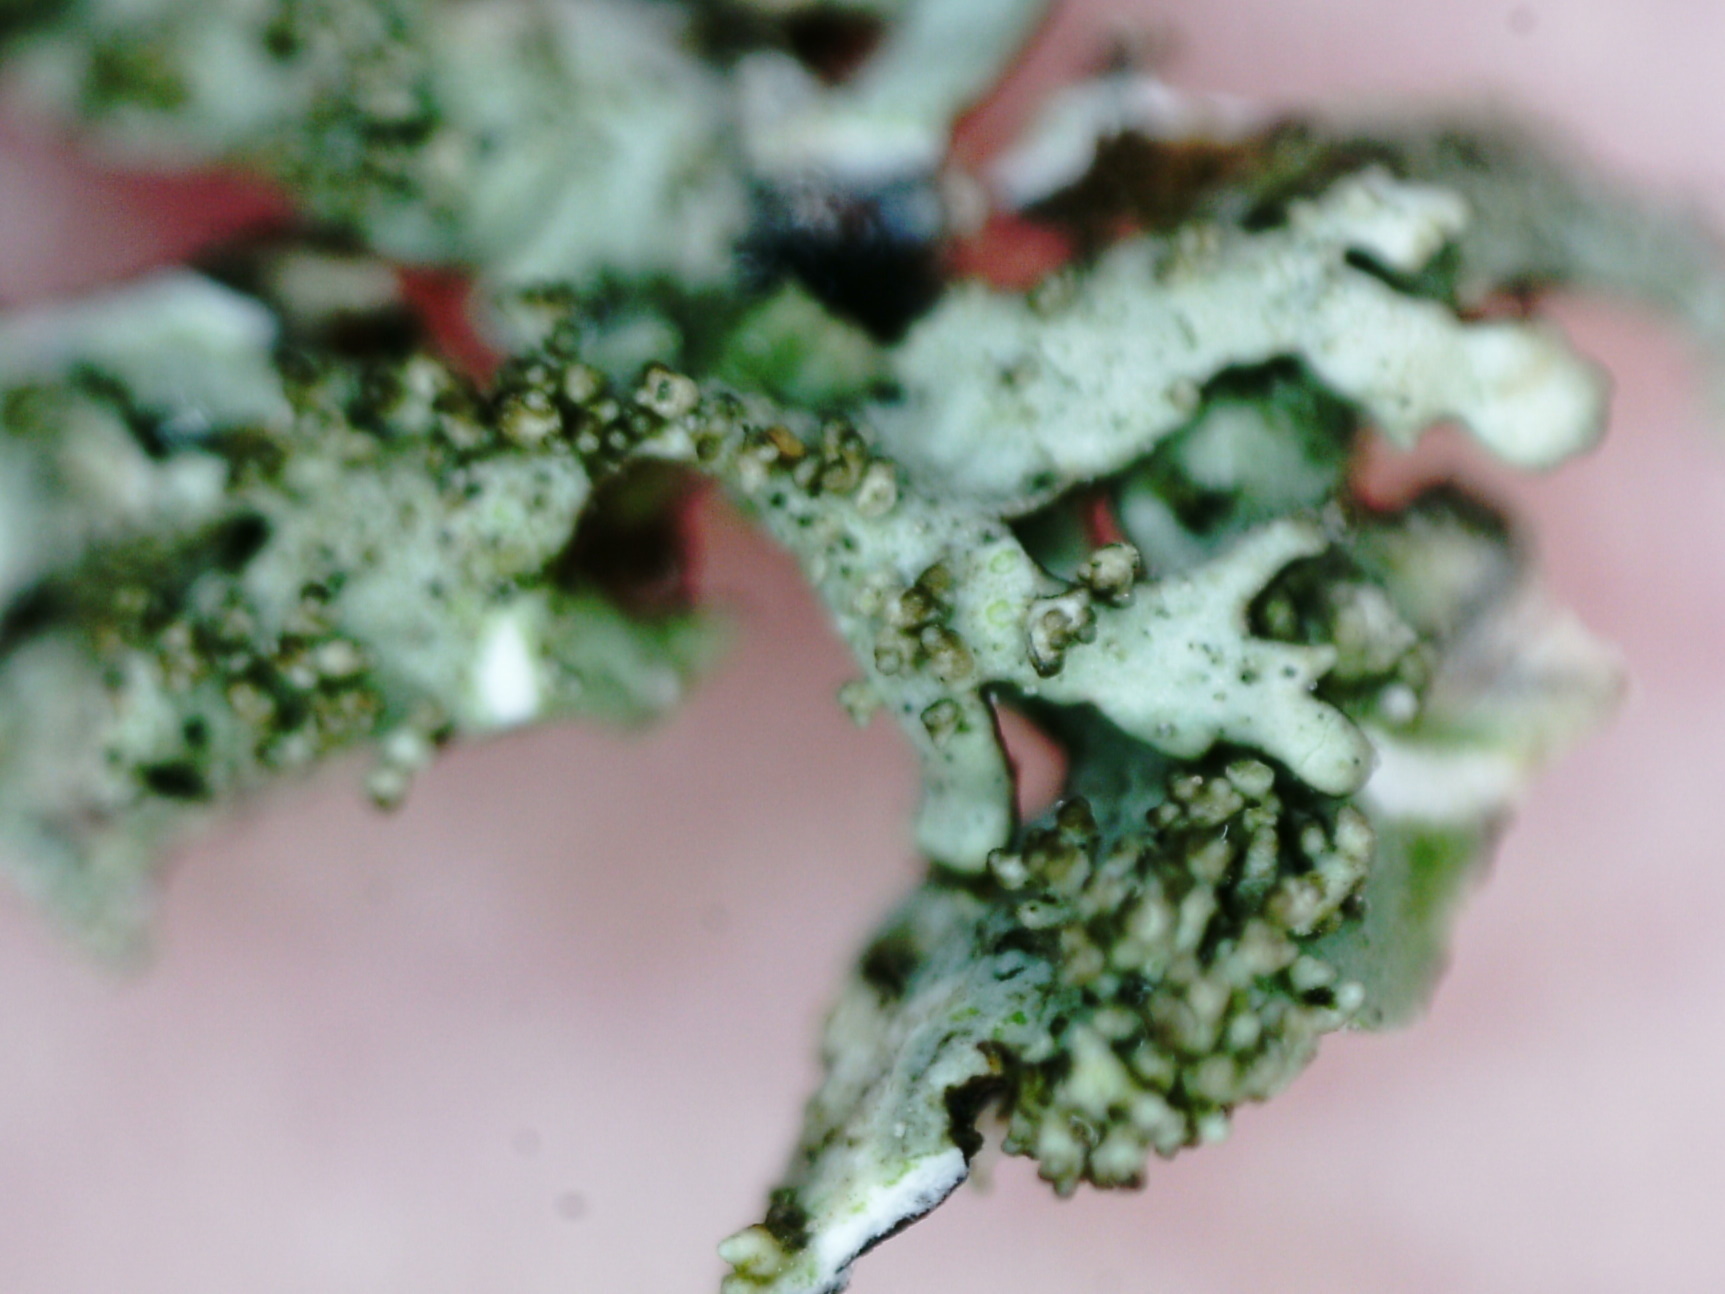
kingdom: Fungi
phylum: Ascomycota
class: Lecanoromycetes
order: Lecanorales
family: Parmeliaceae
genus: Xanthoparmelia
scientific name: Xanthoparmelia conspersa
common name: Peppered rock shield
